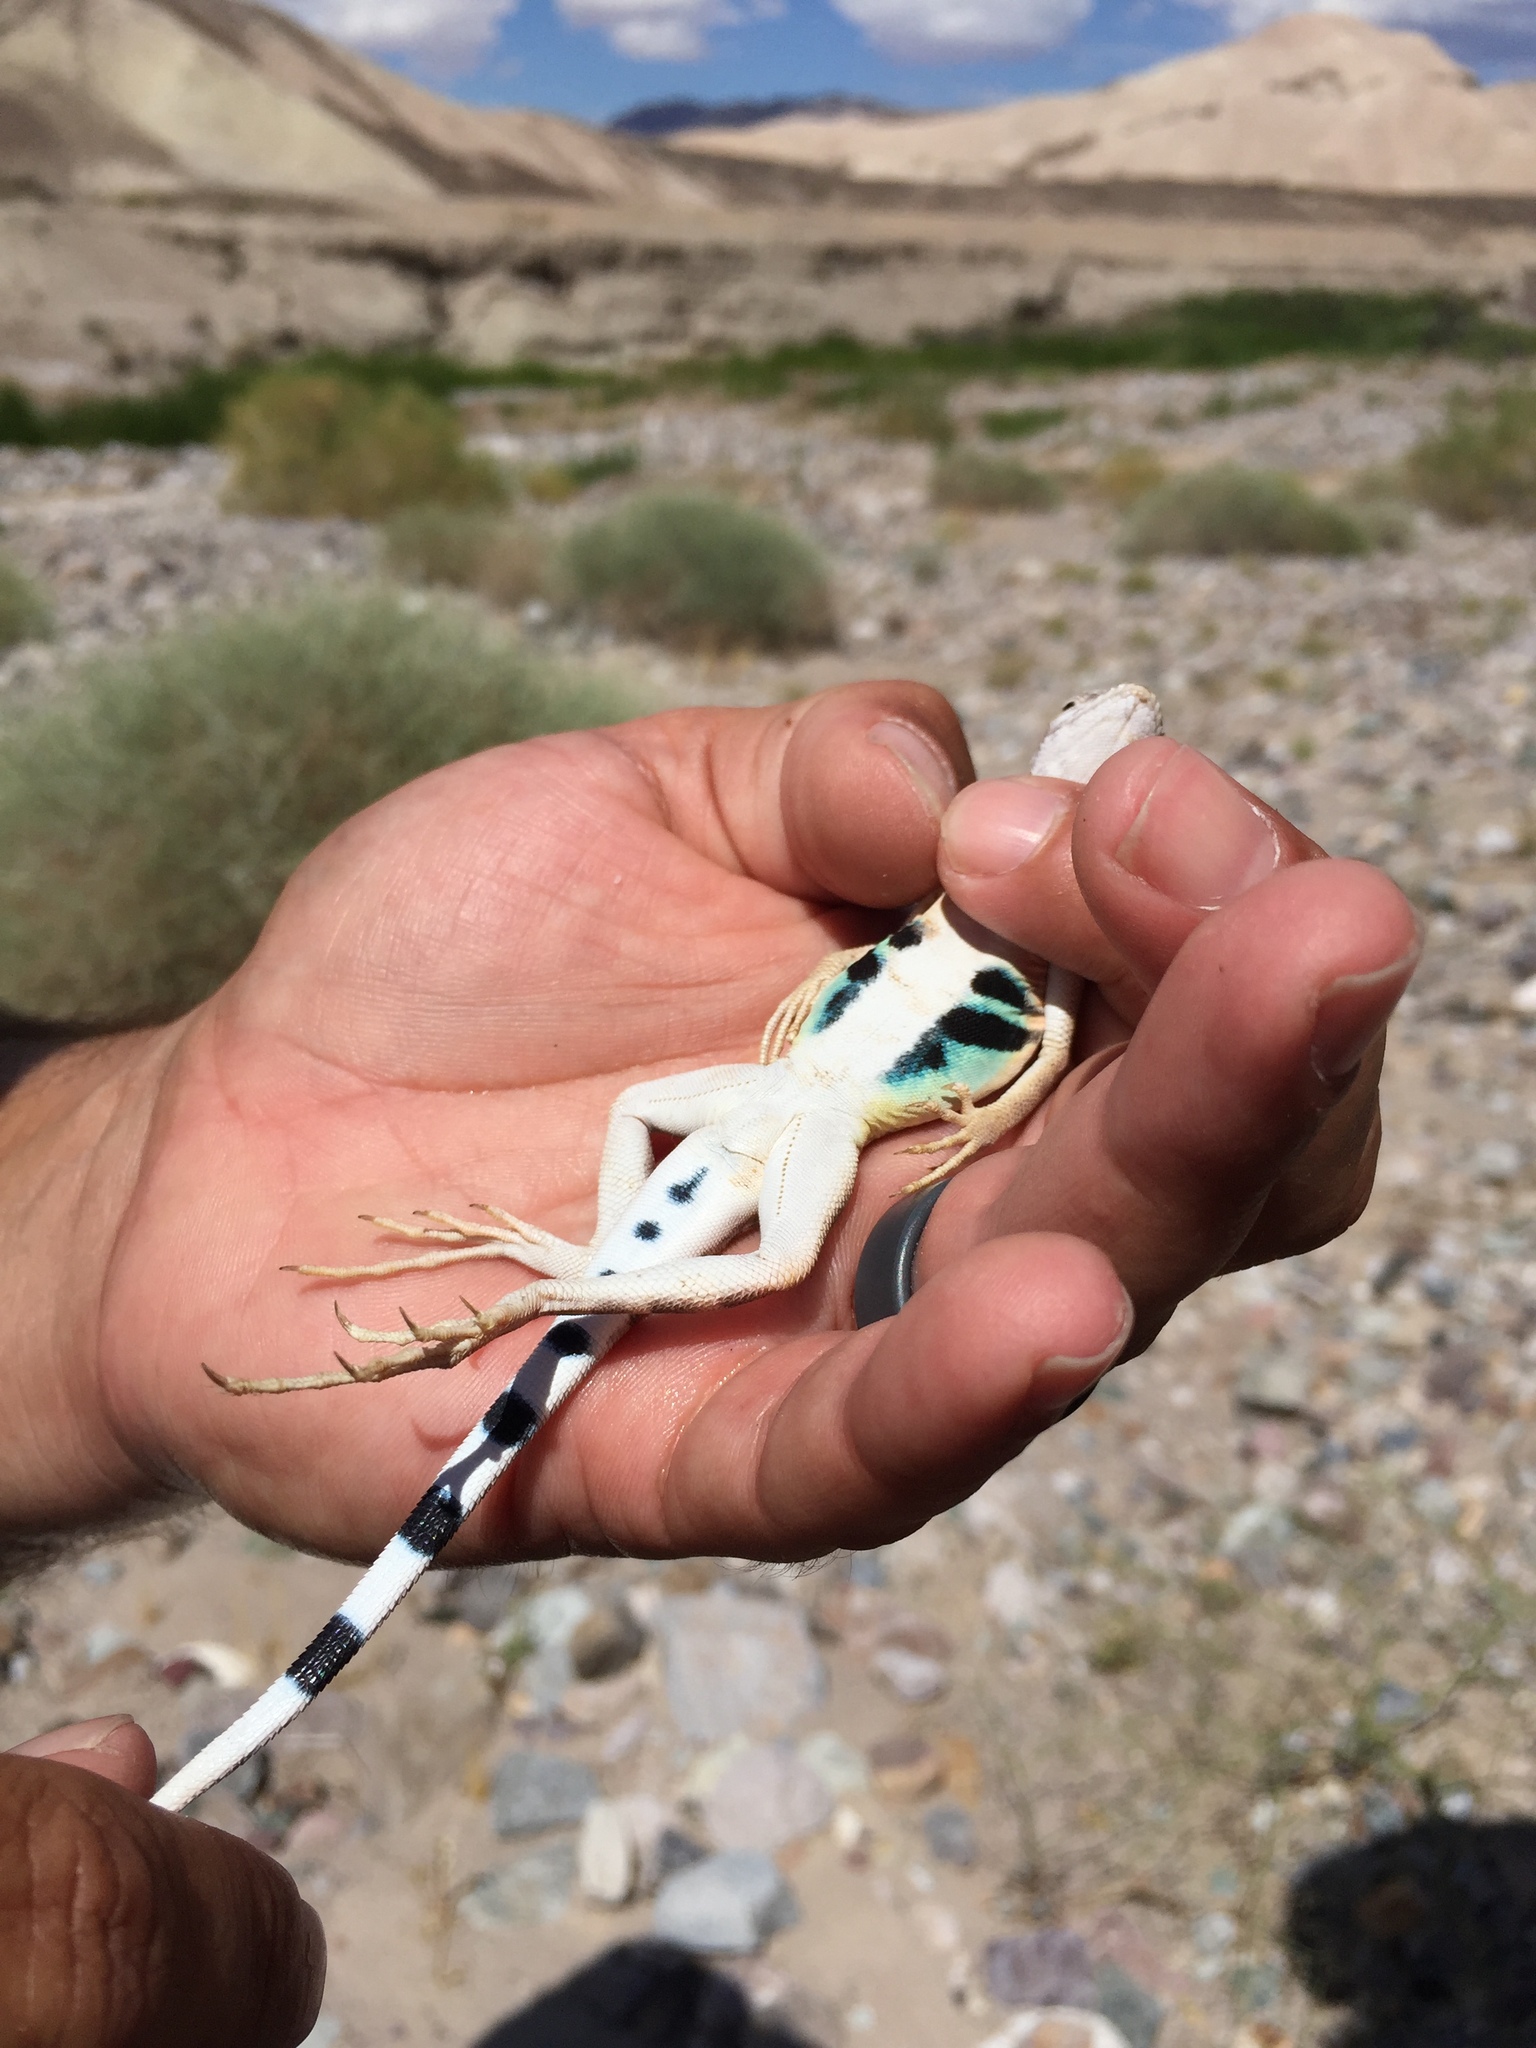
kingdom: Animalia
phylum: Chordata
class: Squamata
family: Phrynosomatidae
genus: Callisaurus
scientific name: Callisaurus draconoides
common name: Zebra-tailed lizard
